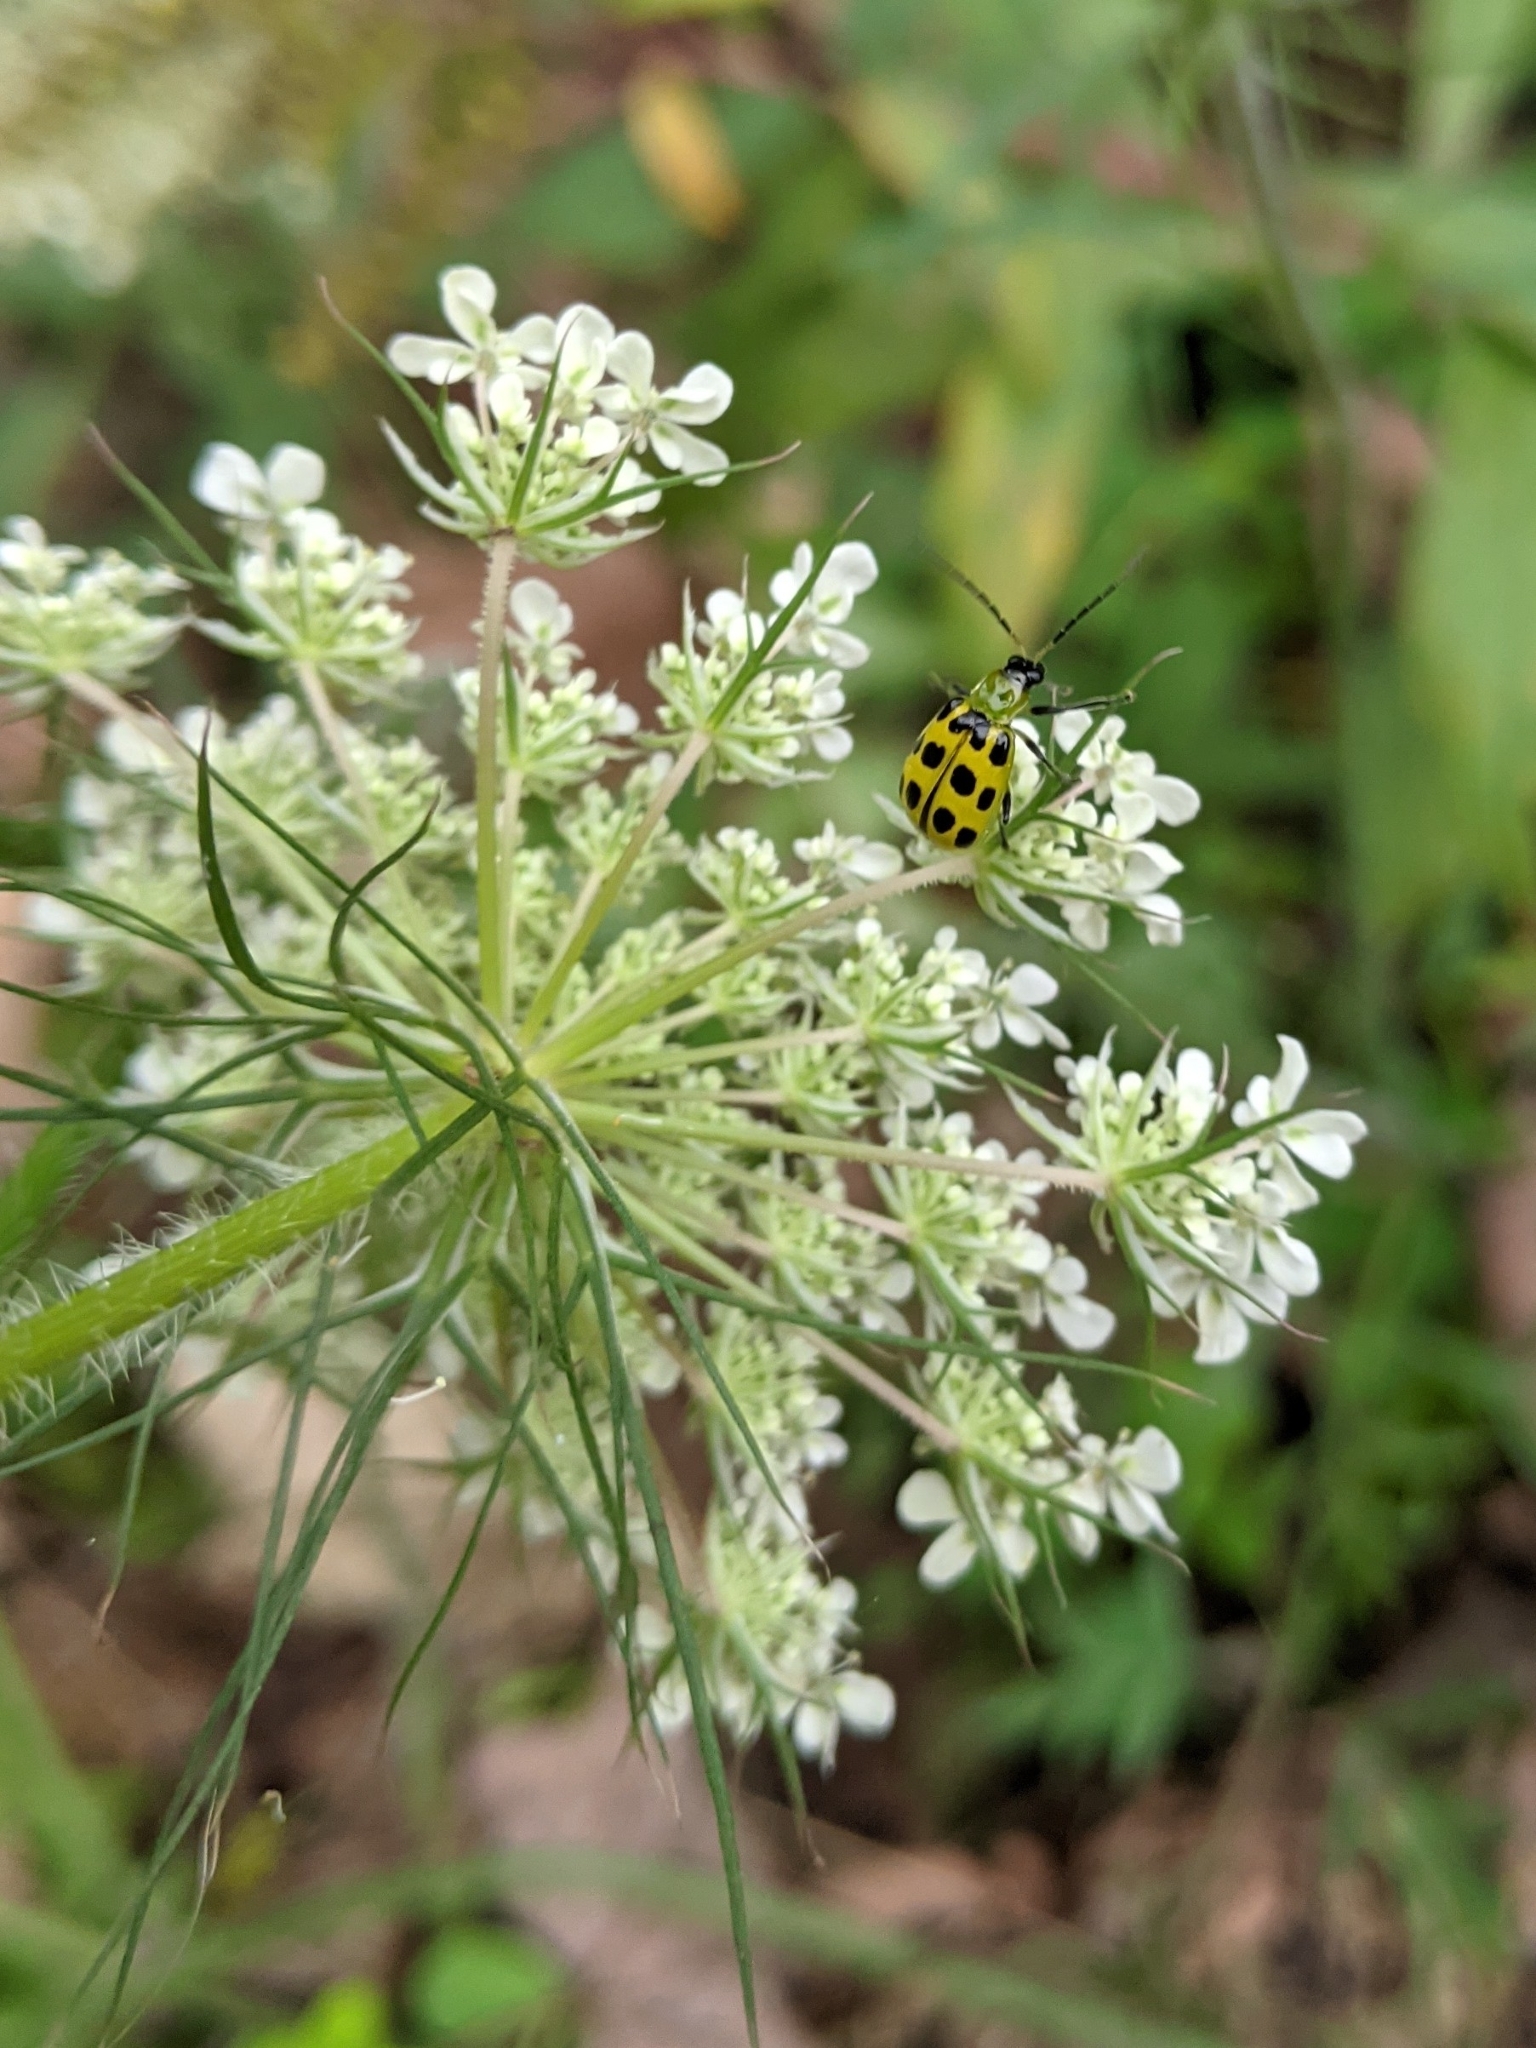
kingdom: Animalia
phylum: Arthropoda
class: Insecta
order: Coleoptera
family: Chrysomelidae
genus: Diabrotica
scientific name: Diabrotica undecimpunctata
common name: Spotted cucumber beetle
